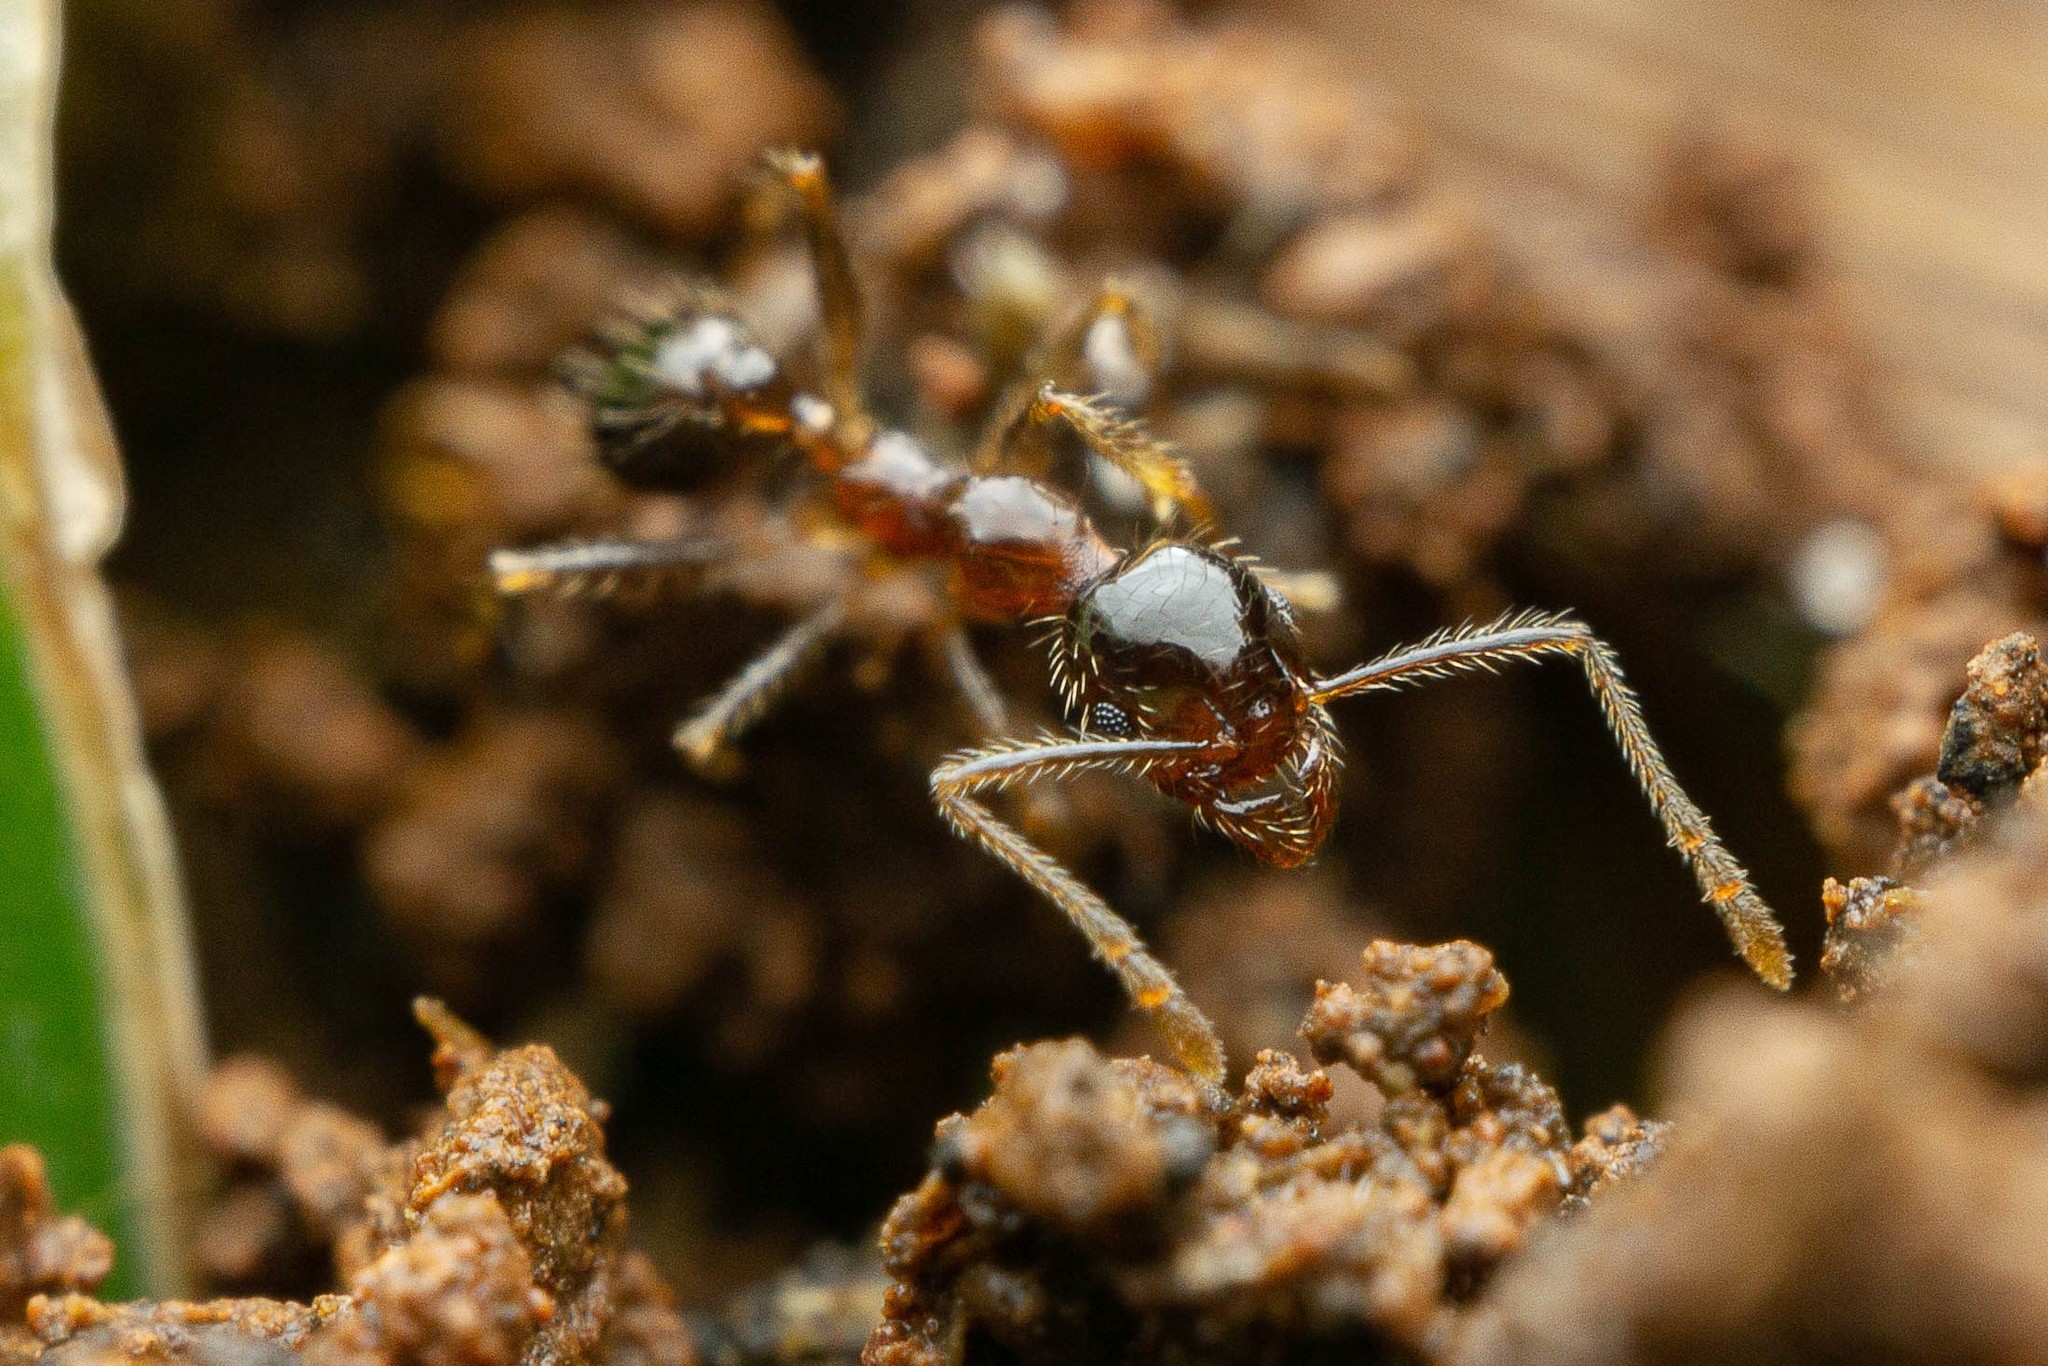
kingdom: Animalia
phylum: Arthropoda
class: Insecta
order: Hymenoptera
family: Formicidae
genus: Pheidole
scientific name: Pheidole megacephala
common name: Bigheaded ant
